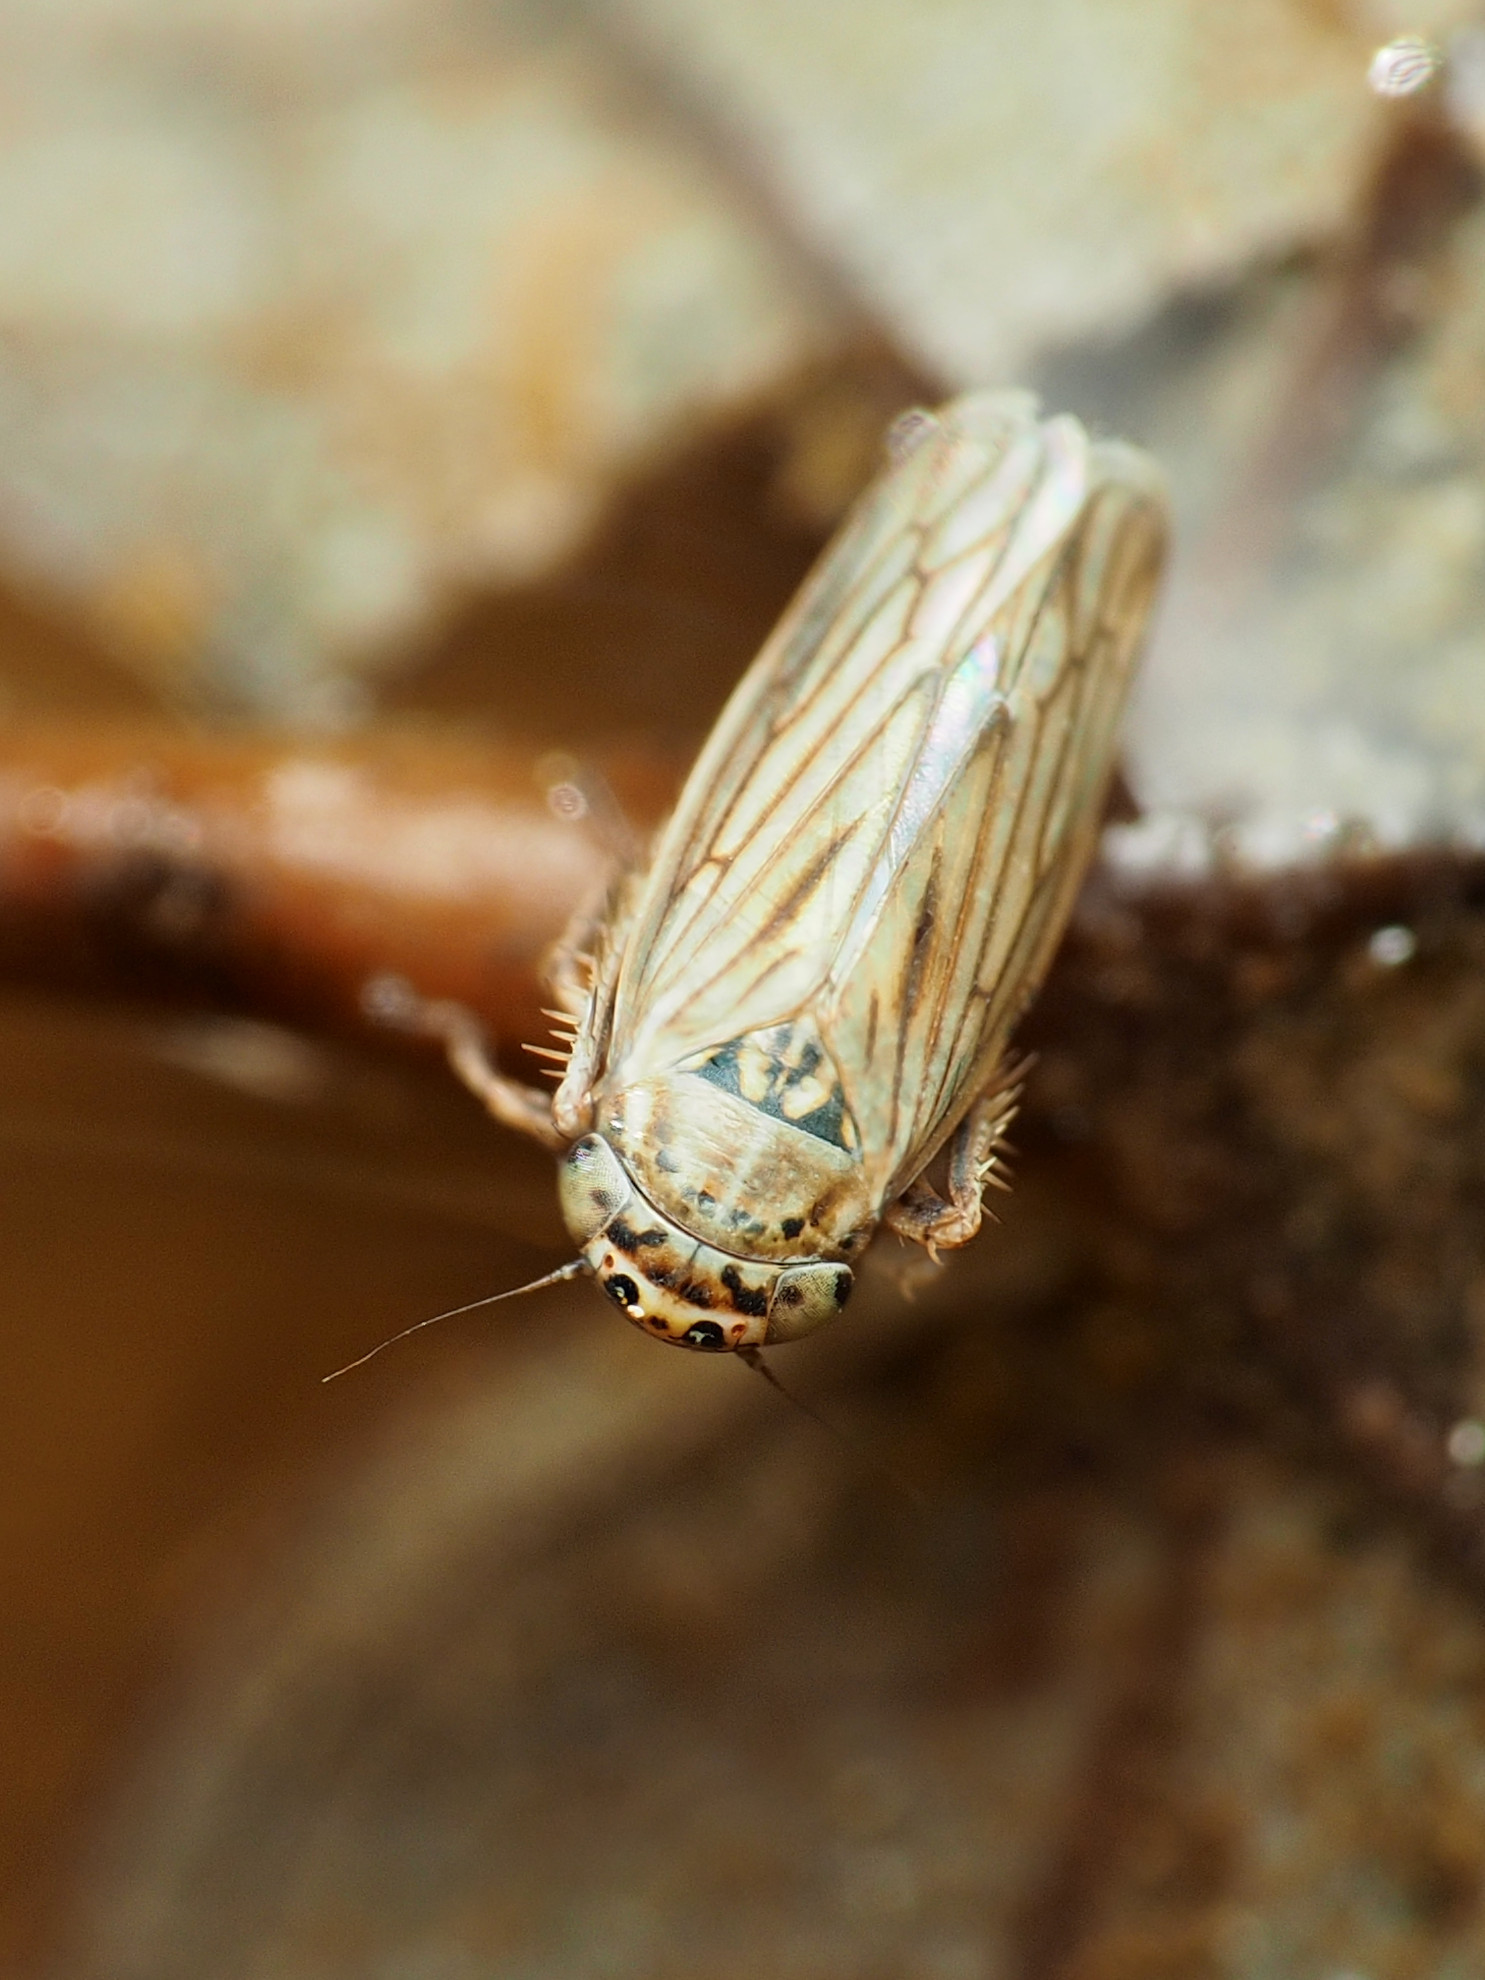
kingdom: Animalia
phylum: Arthropoda
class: Insecta
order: Hemiptera
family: Cicadellidae
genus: Exitianus
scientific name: Exitianus exitiosus
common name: Gray lawn leafhopper
